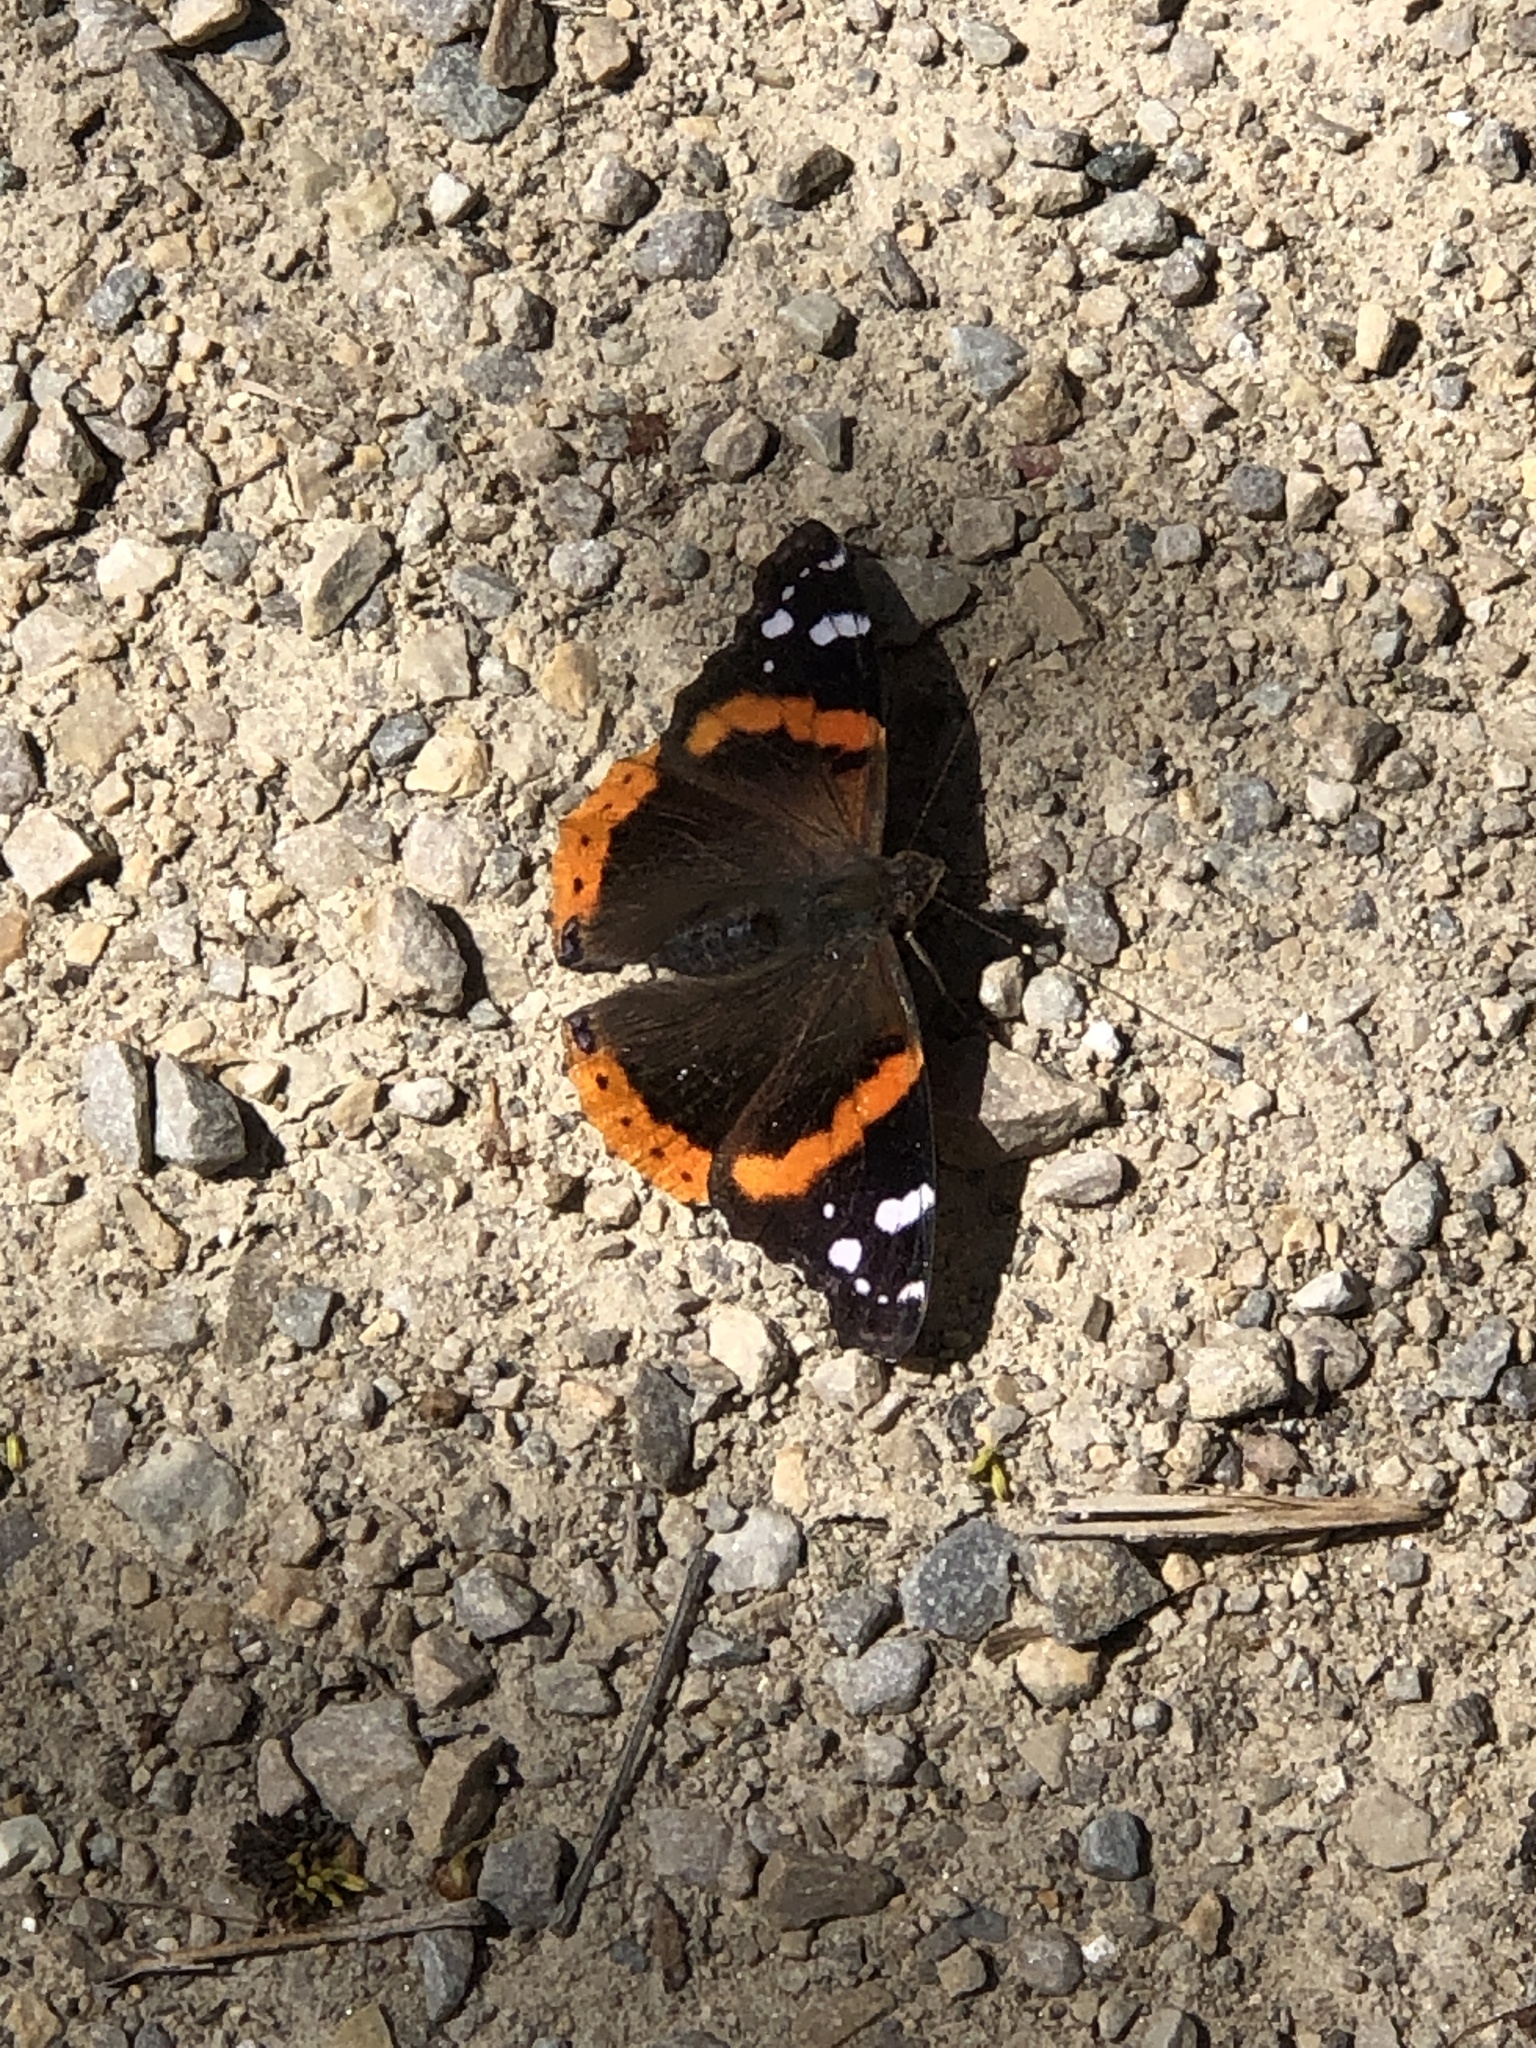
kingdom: Animalia
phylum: Arthropoda
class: Insecta
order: Lepidoptera
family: Nymphalidae
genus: Vanessa
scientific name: Vanessa atalanta
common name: Red admiral
